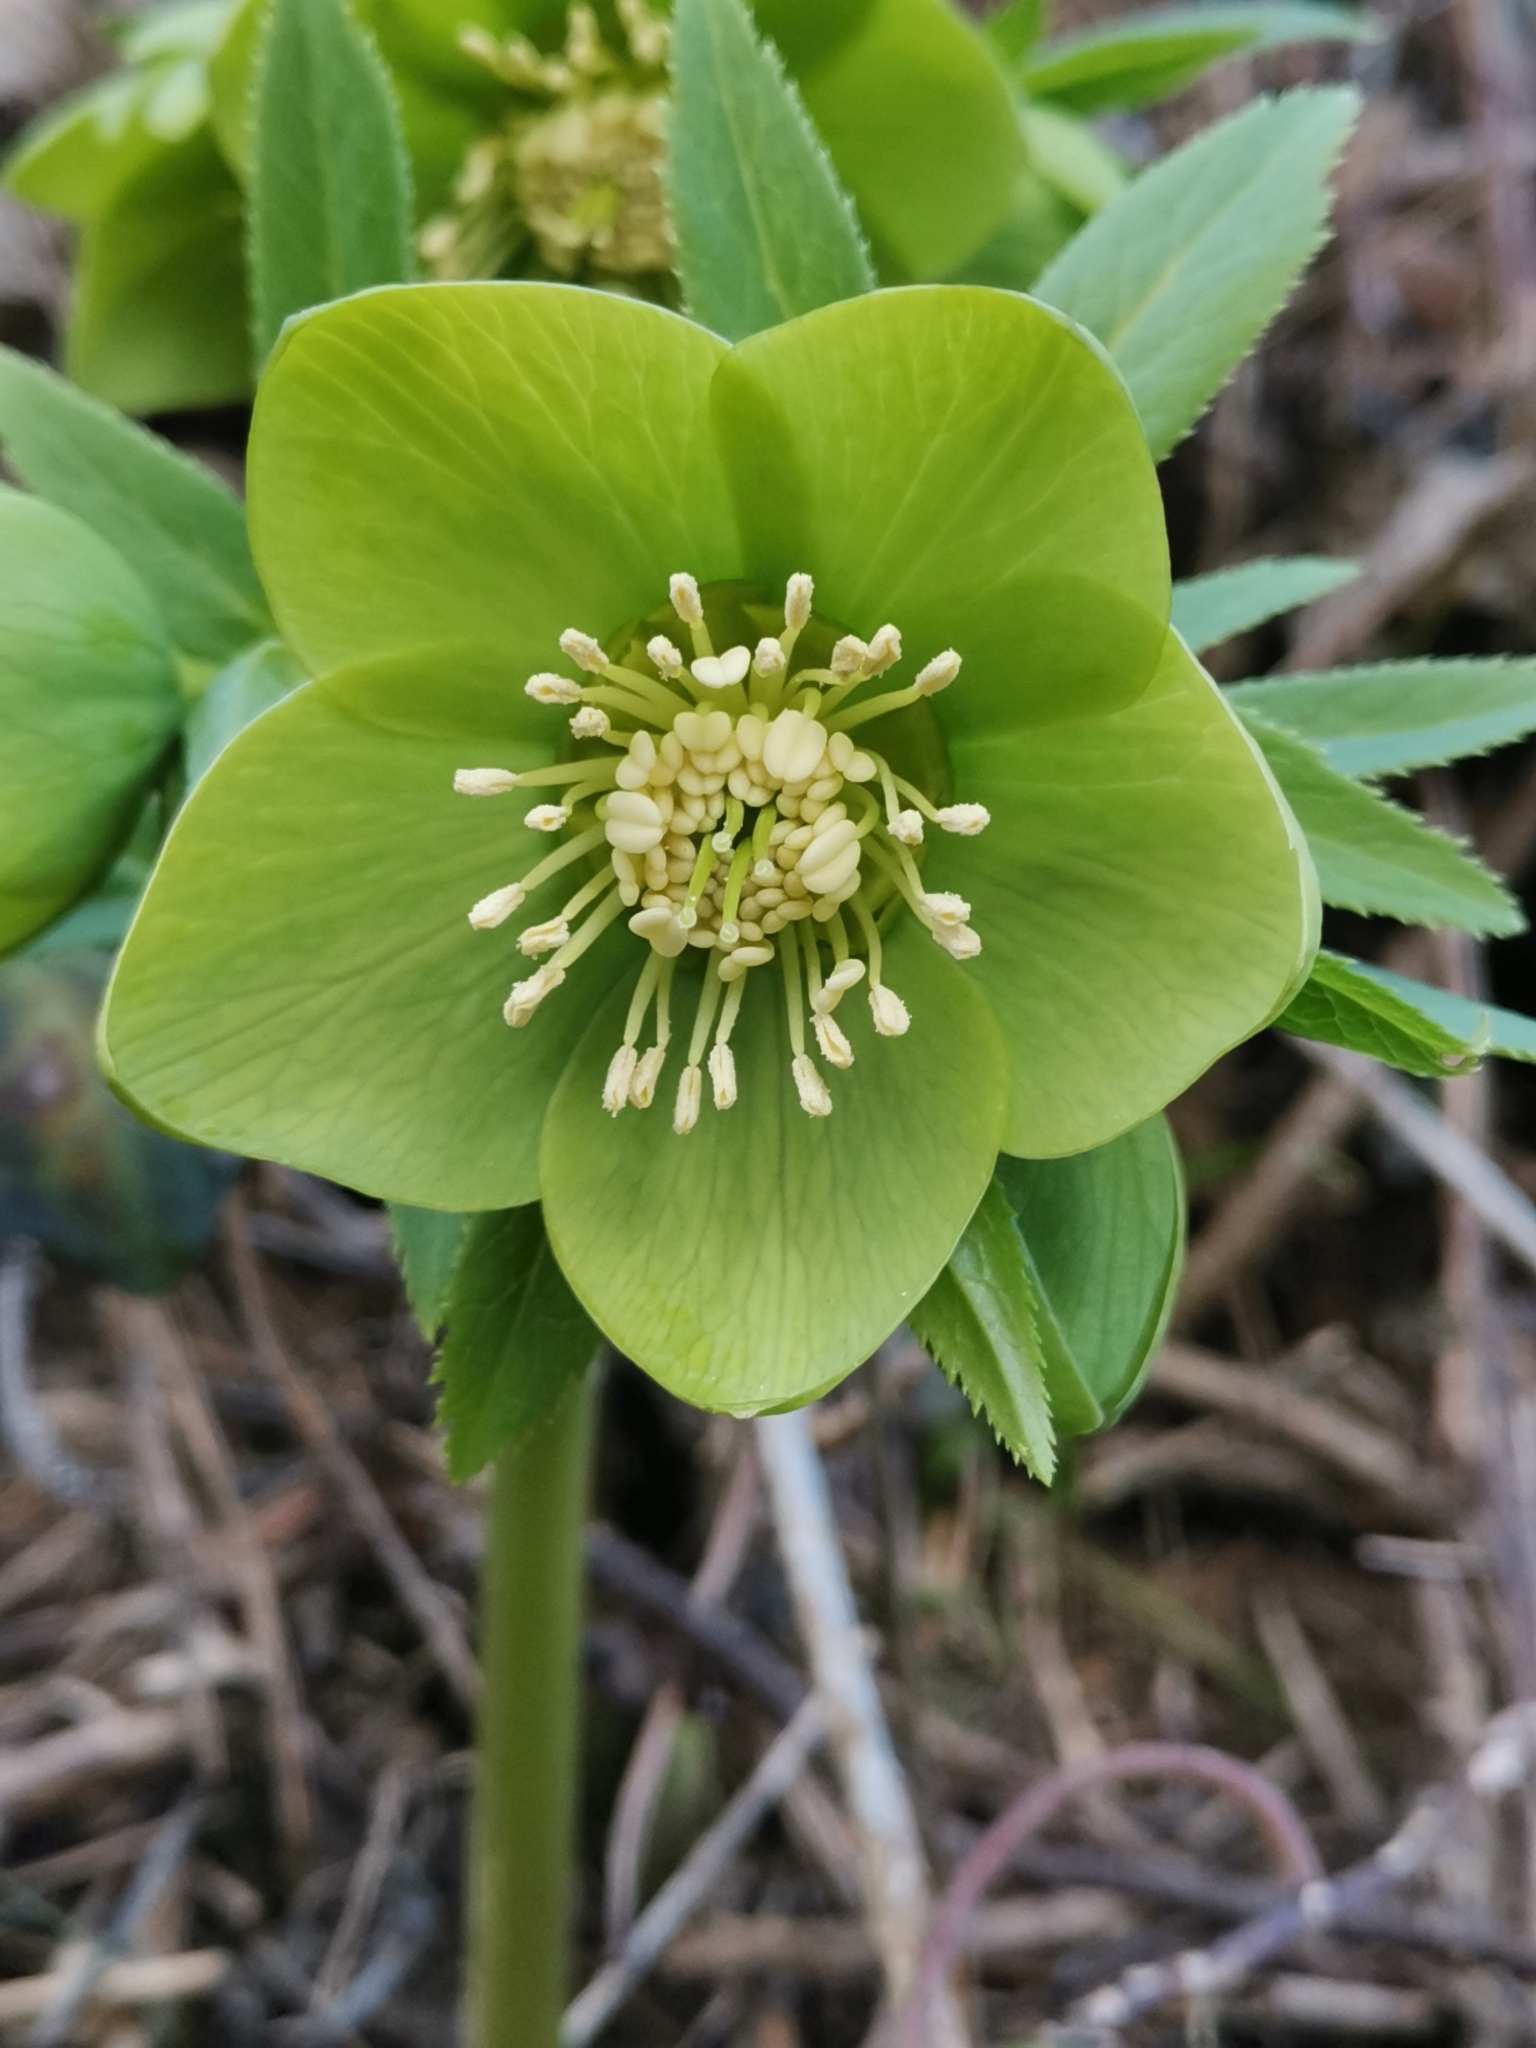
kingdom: Plantae
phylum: Tracheophyta
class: Magnoliopsida
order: Ranunculales
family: Ranunculaceae
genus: Helleborus
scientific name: Helleborus odorus
